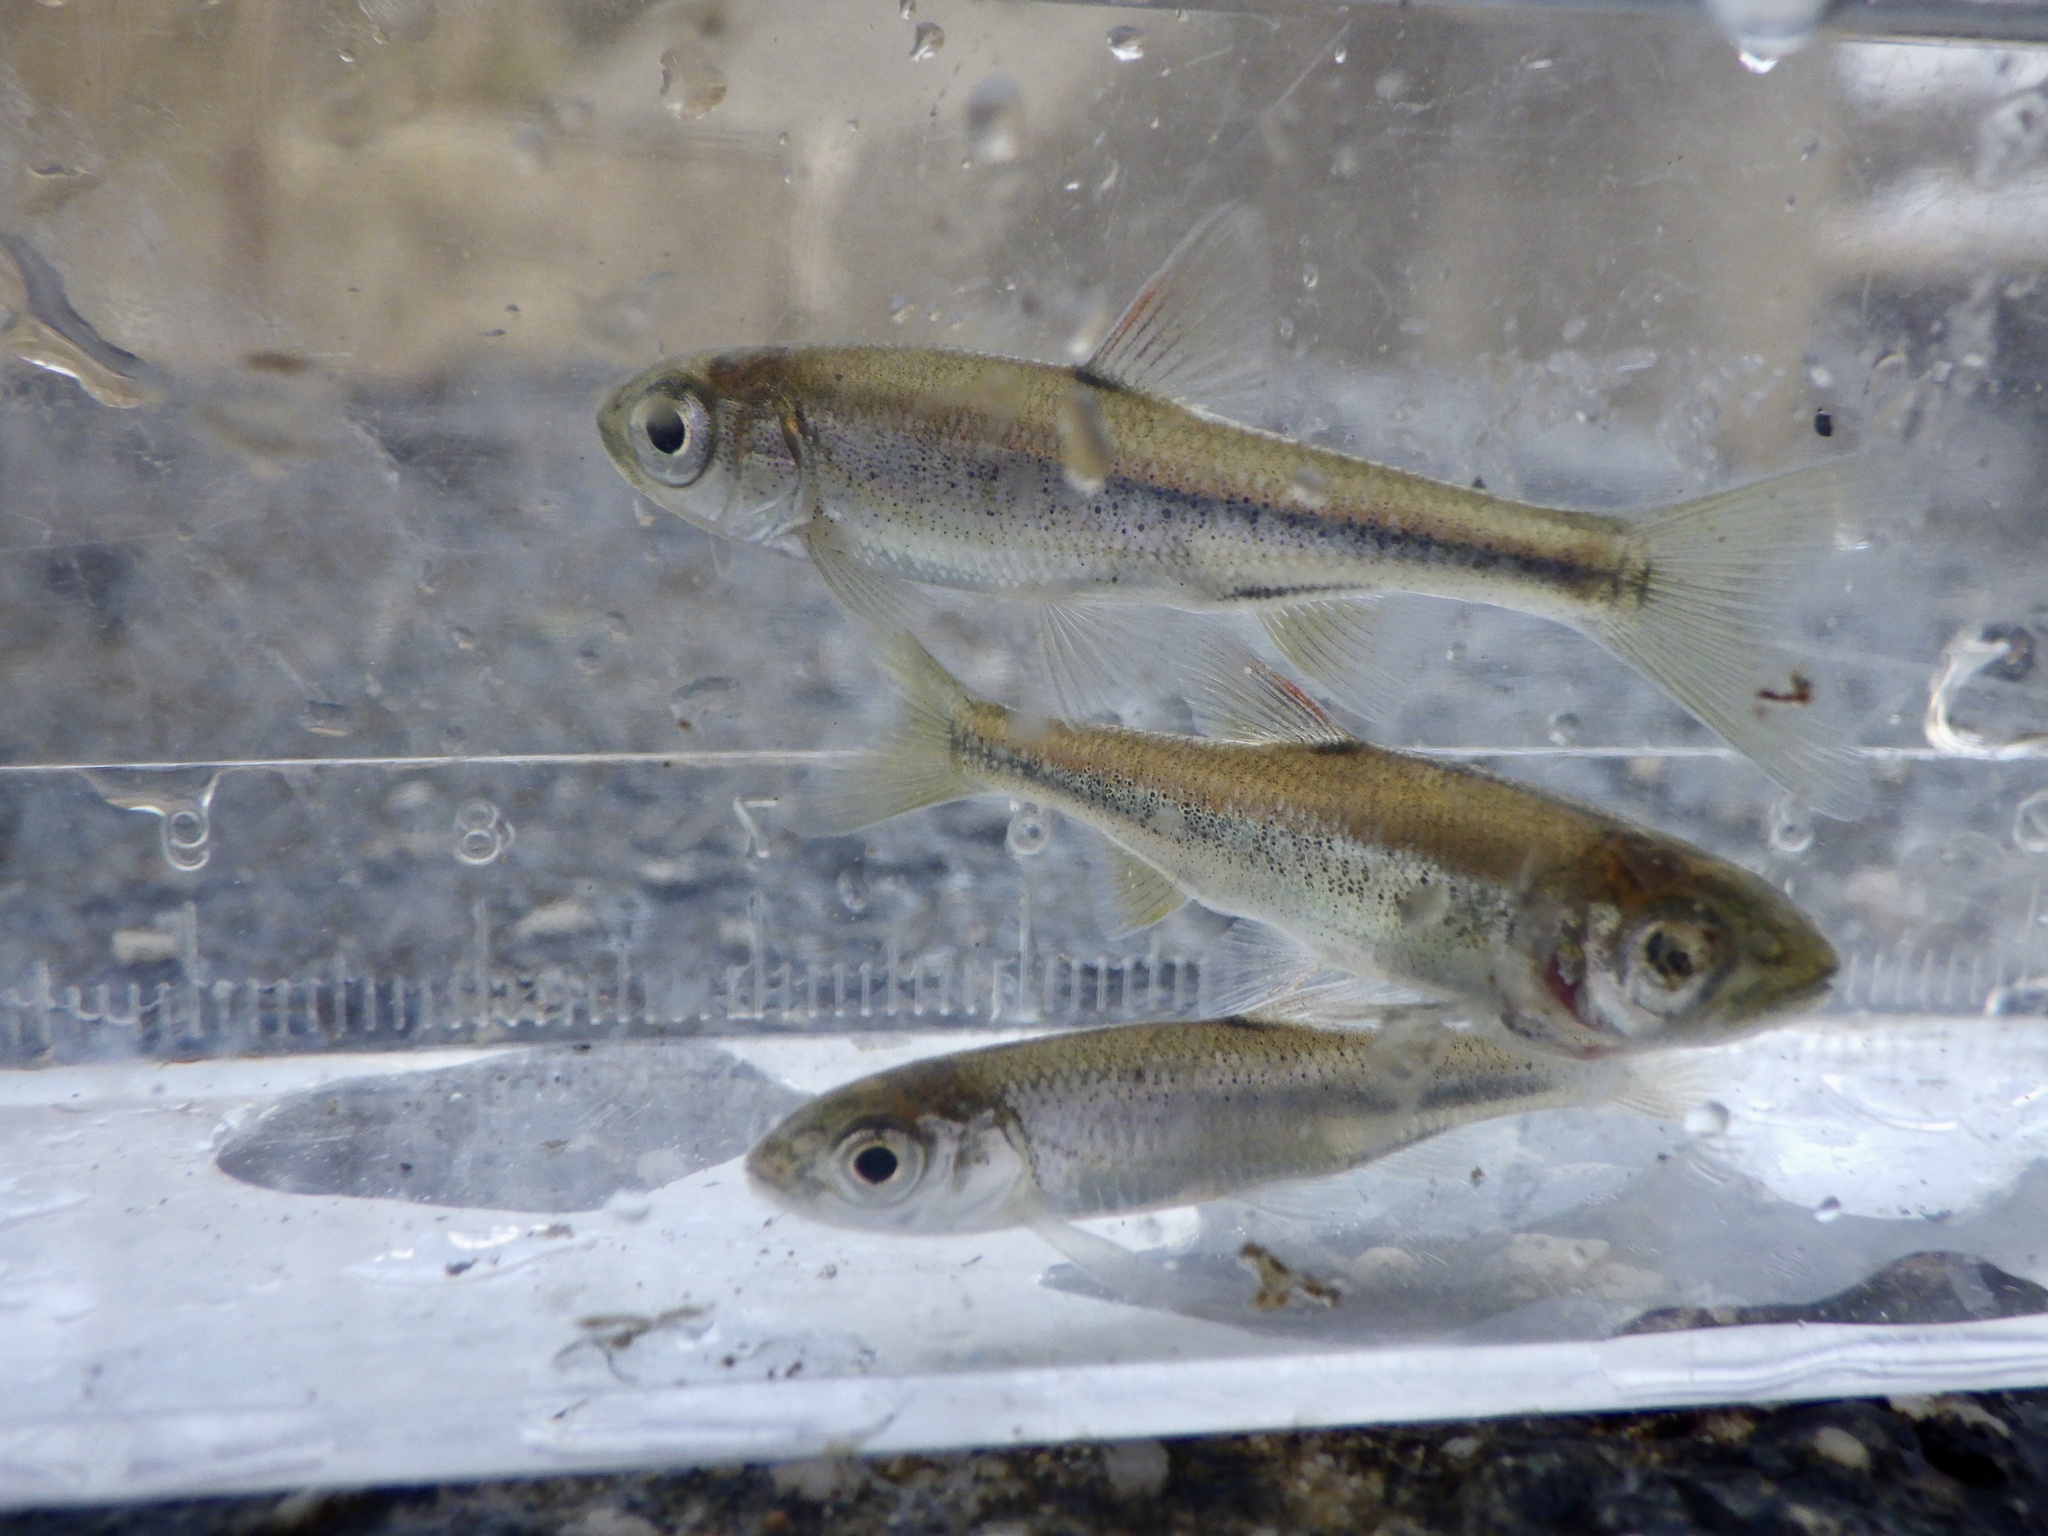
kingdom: Animalia
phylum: Chordata
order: Cypriniformes
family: Cyprinidae
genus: Nipponocypris
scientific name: Nipponocypris temminckii
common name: Dark chub
